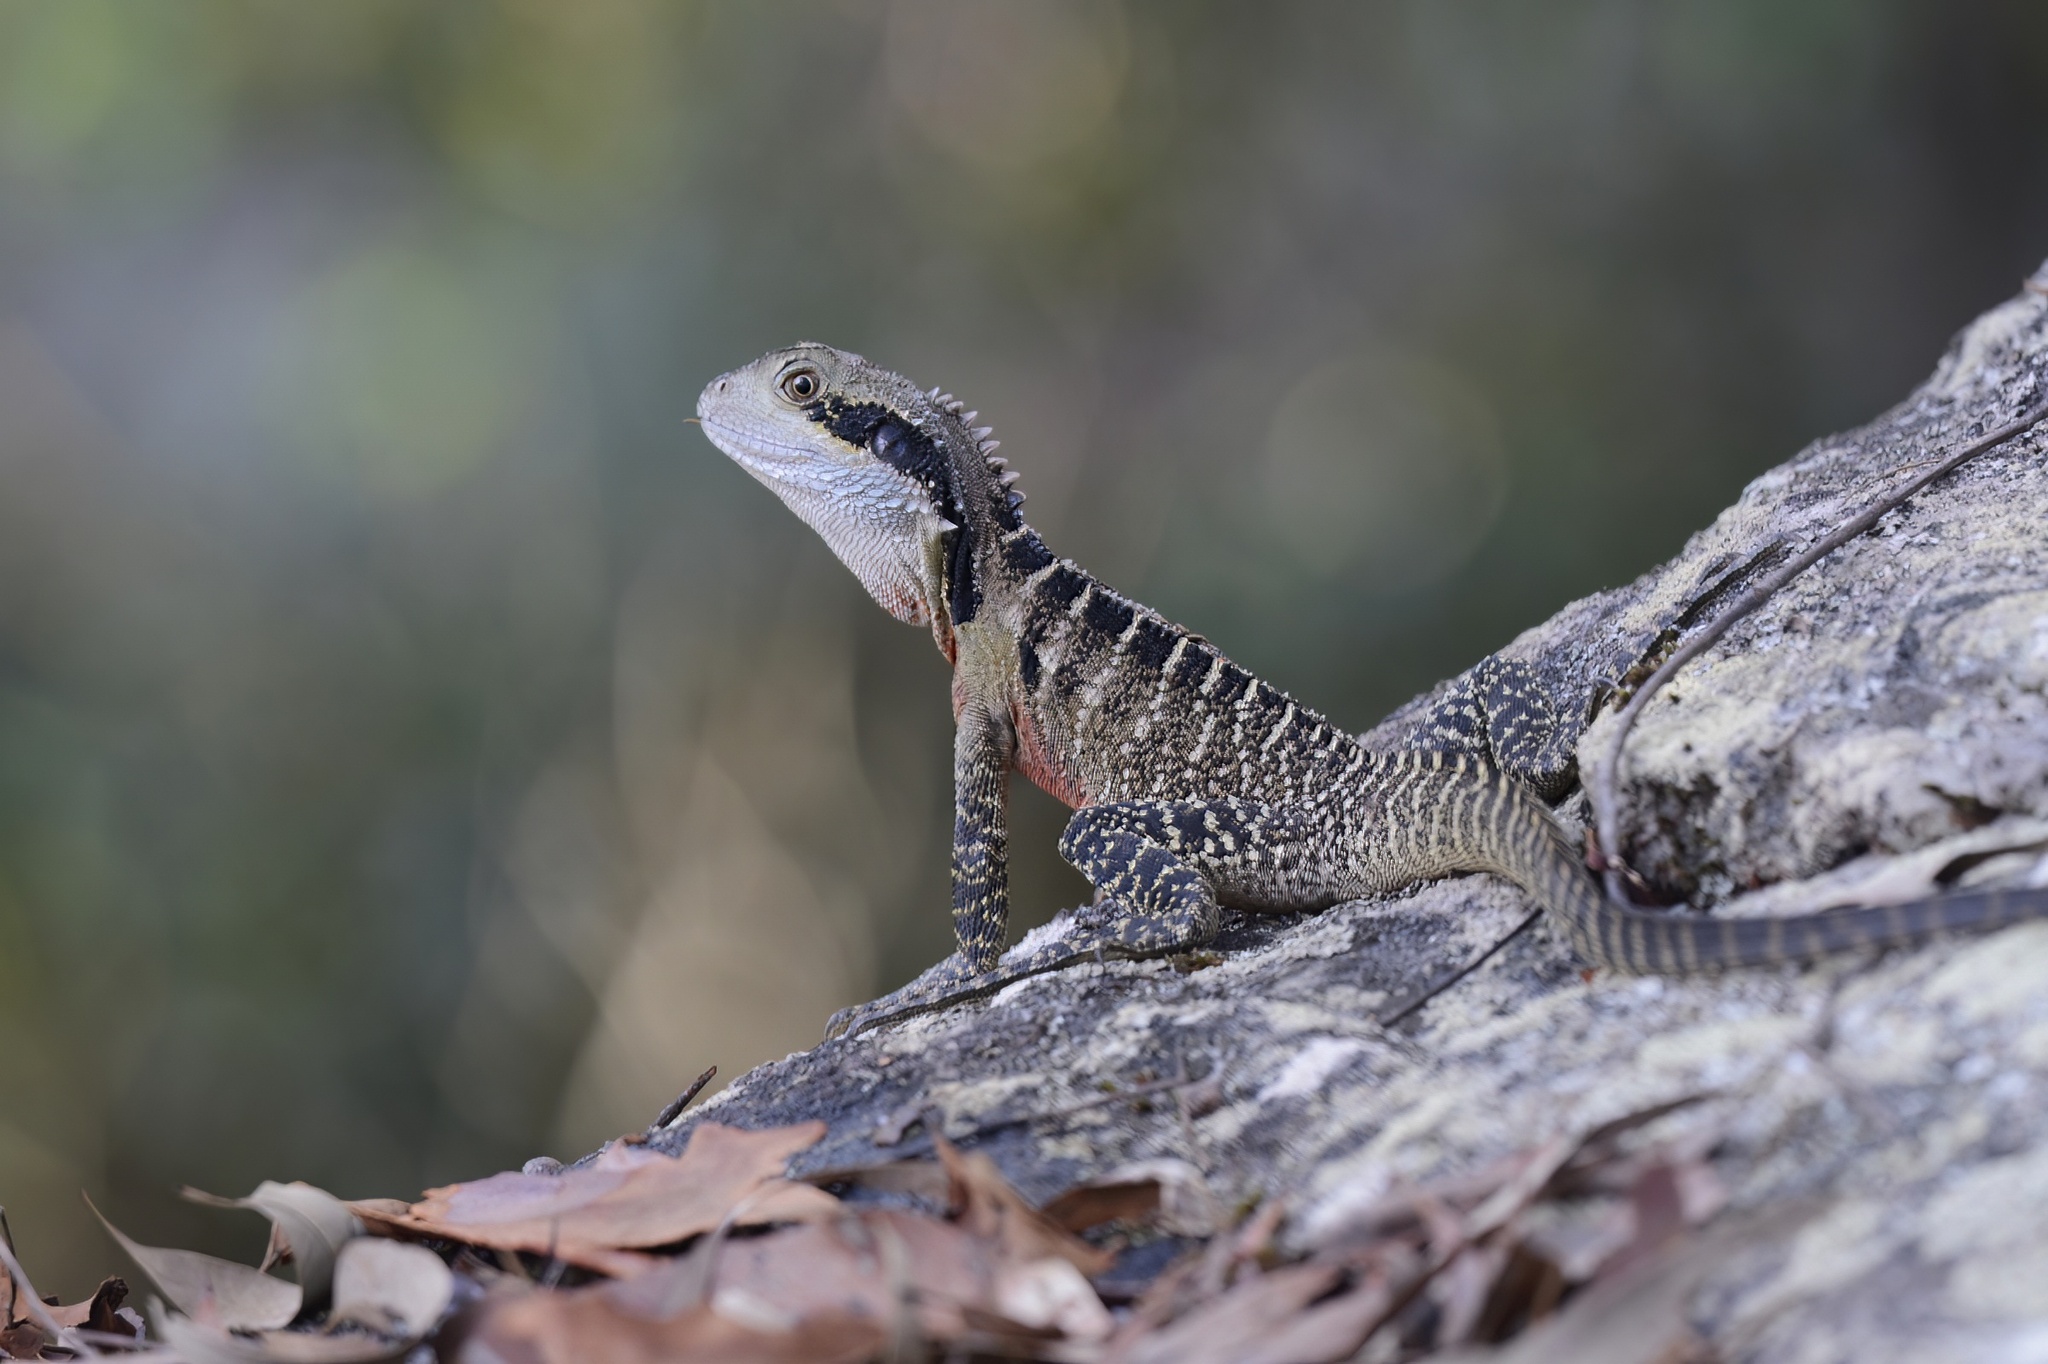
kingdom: Animalia
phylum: Chordata
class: Squamata
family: Agamidae
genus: Intellagama
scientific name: Intellagama lesueurii
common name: Eastern water dragon
